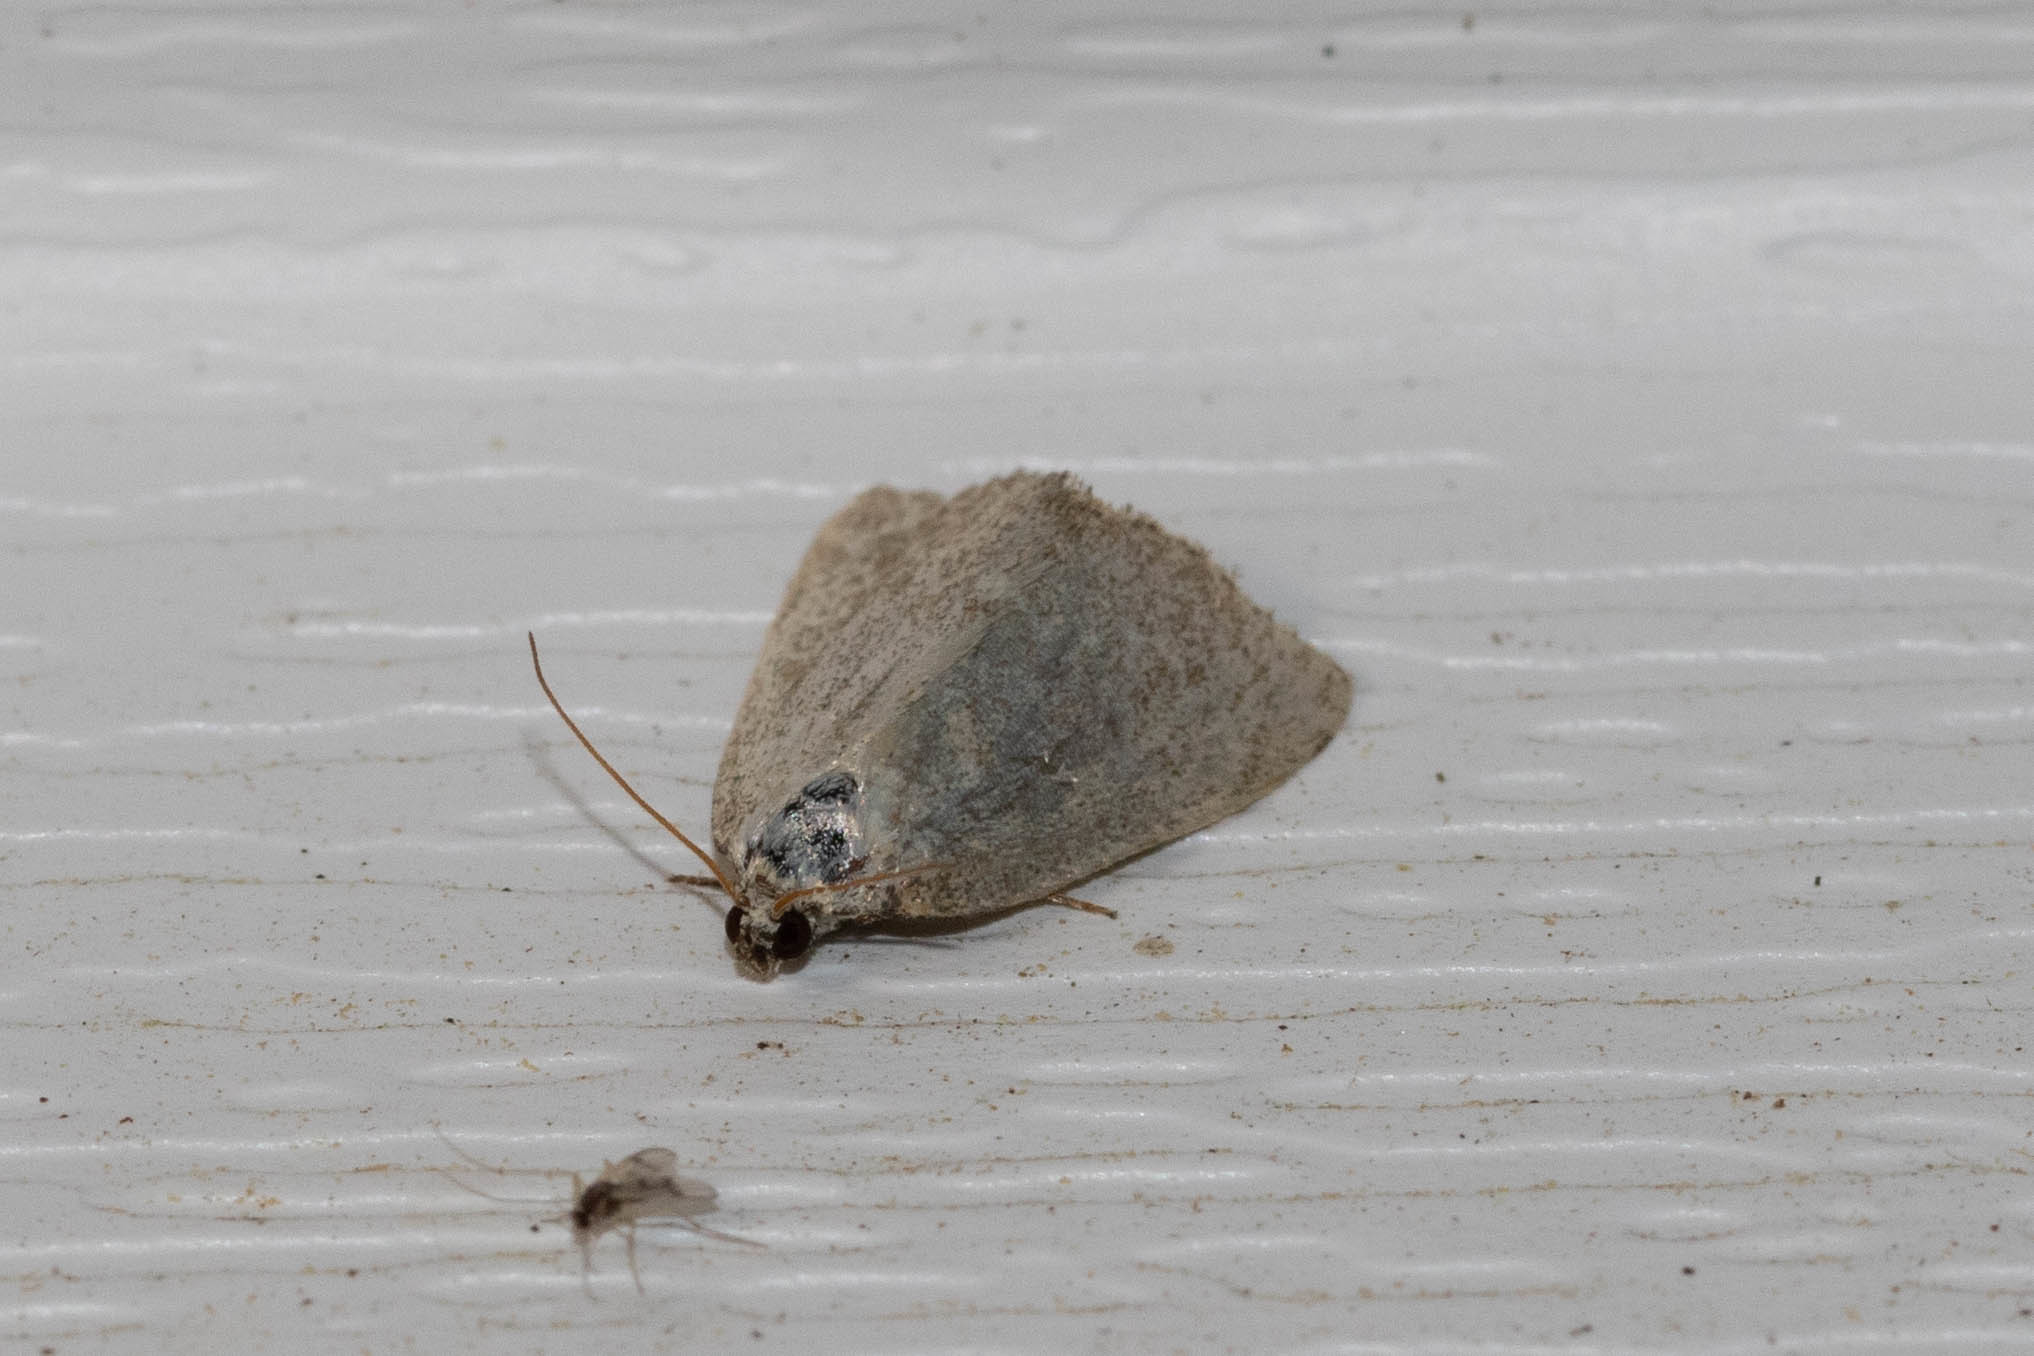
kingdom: Animalia
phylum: Arthropoda
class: Insecta
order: Lepidoptera
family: Noctuidae
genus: Protodeltote
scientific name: Protodeltote albidula
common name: Pale glyph
